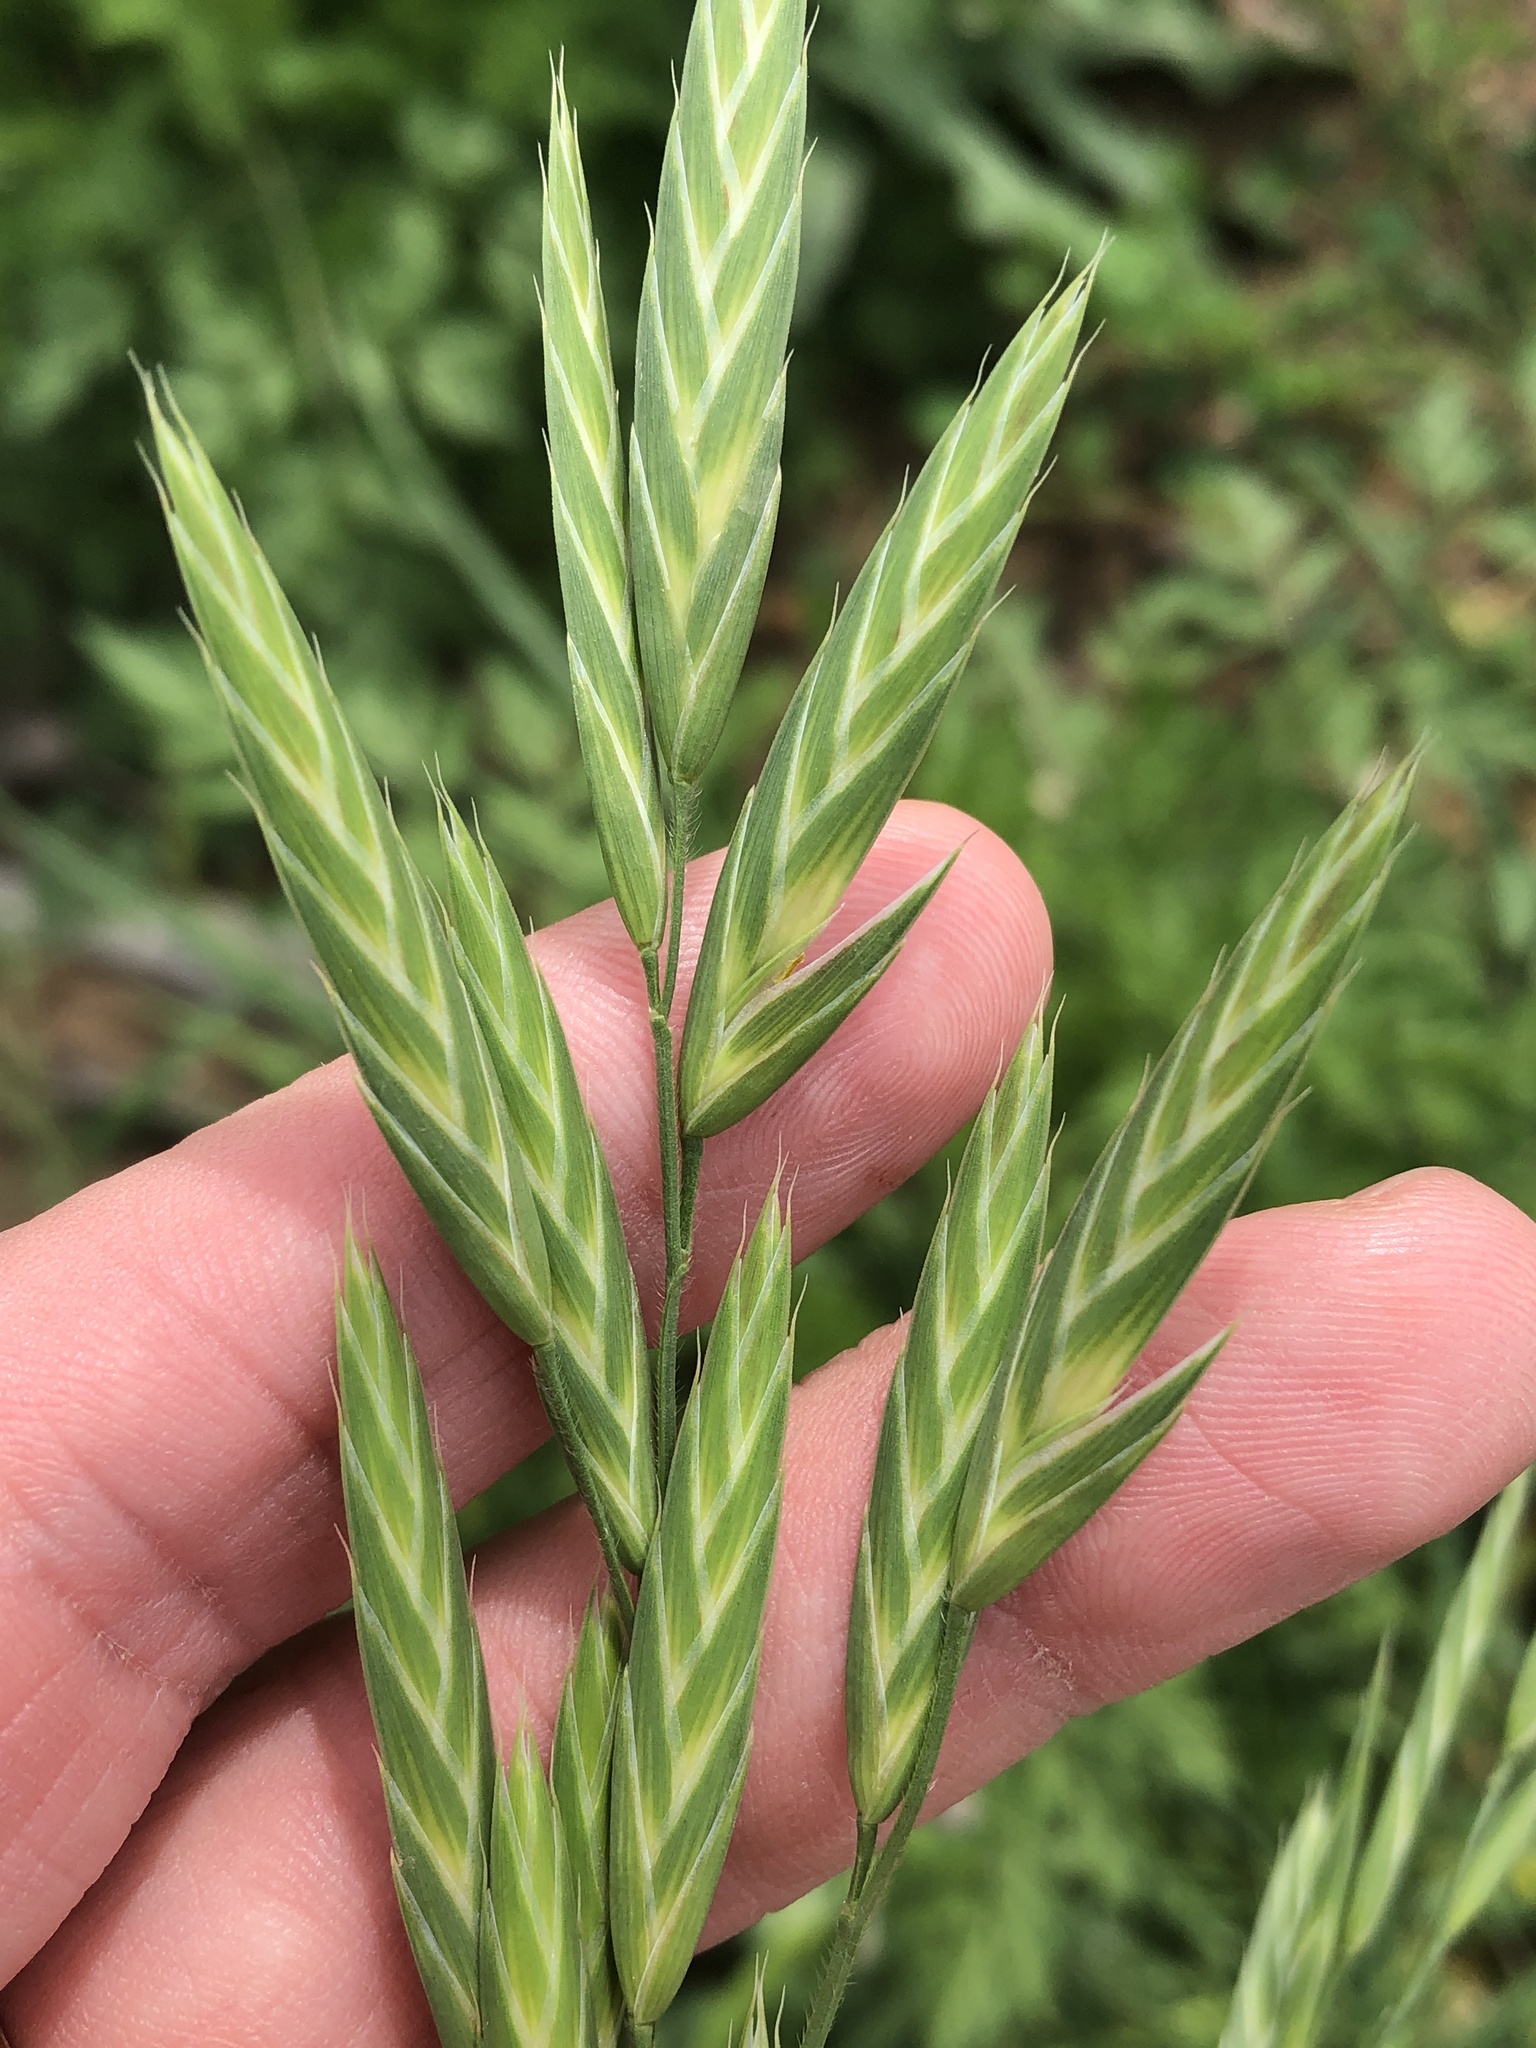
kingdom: Plantae
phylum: Tracheophyta
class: Liliopsida
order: Poales
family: Poaceae
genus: Bromus
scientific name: Bromus catharticus
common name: Rescuegrass
